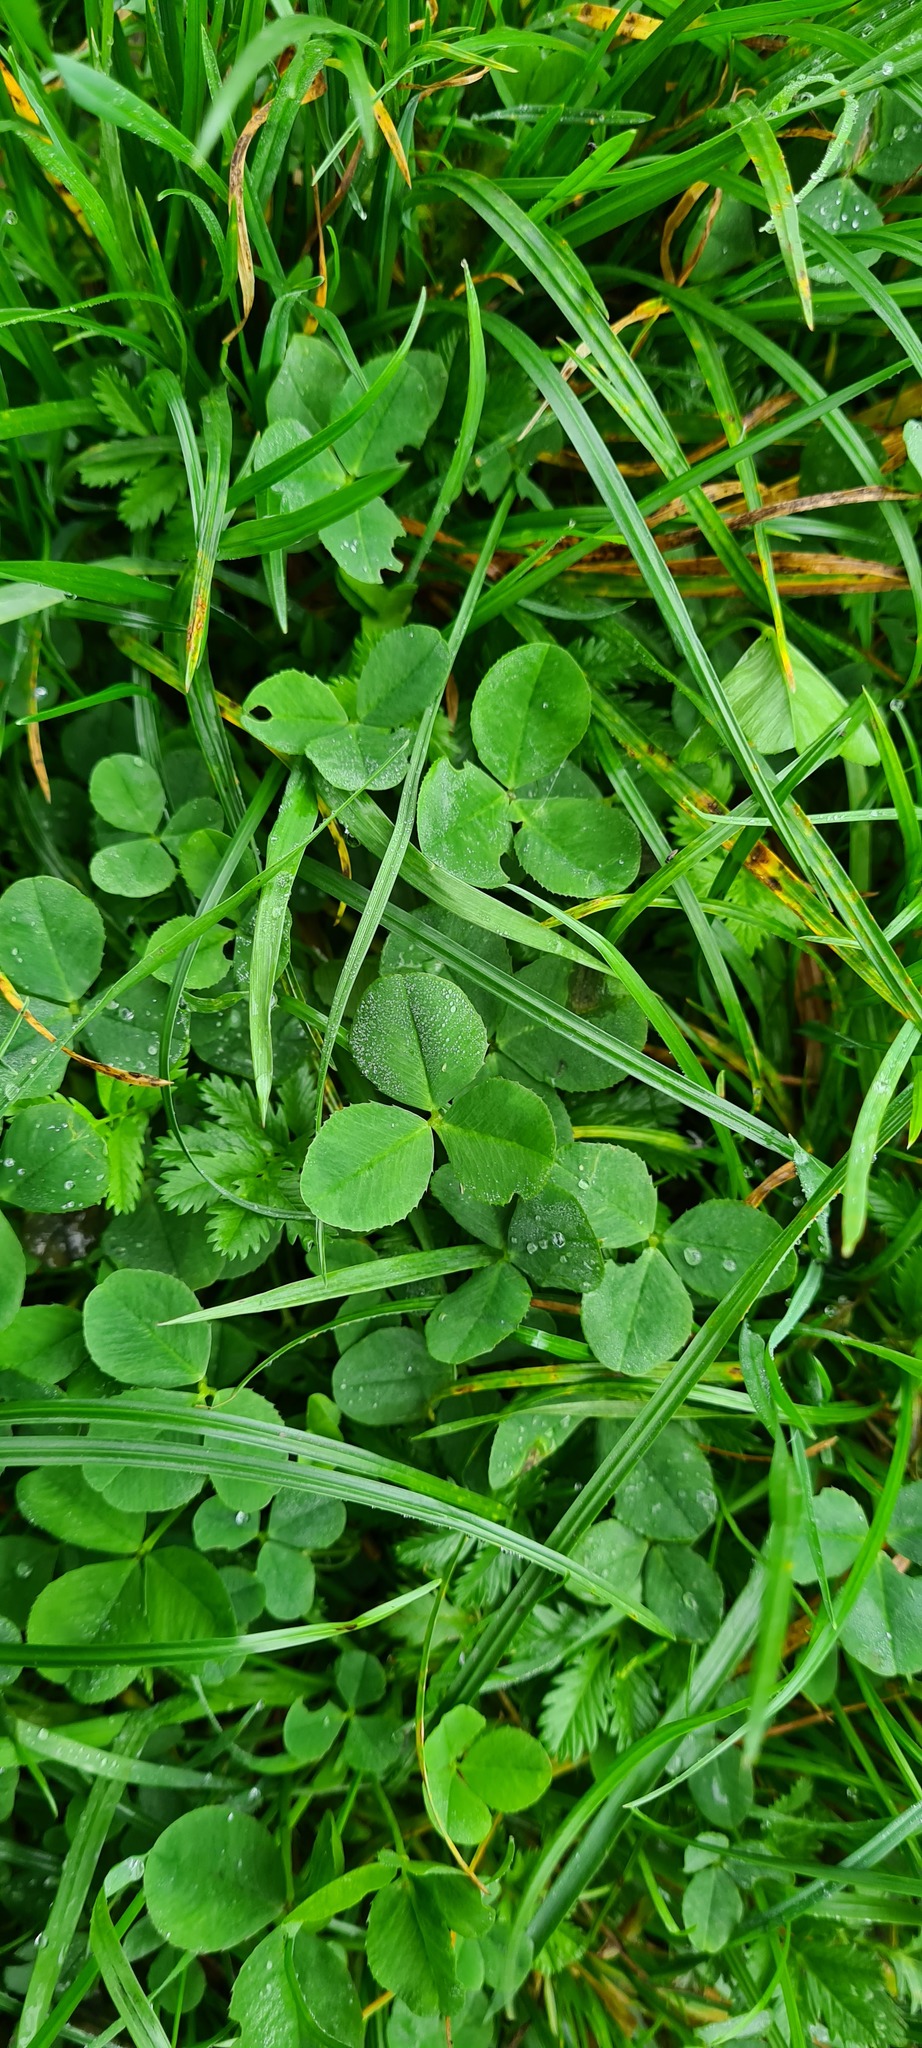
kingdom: Plantae
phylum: Tracheophyta
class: Magnoliopsida
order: Fabales
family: Fabaceae
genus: Trifolium
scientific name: Trifolium repens
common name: White clover
